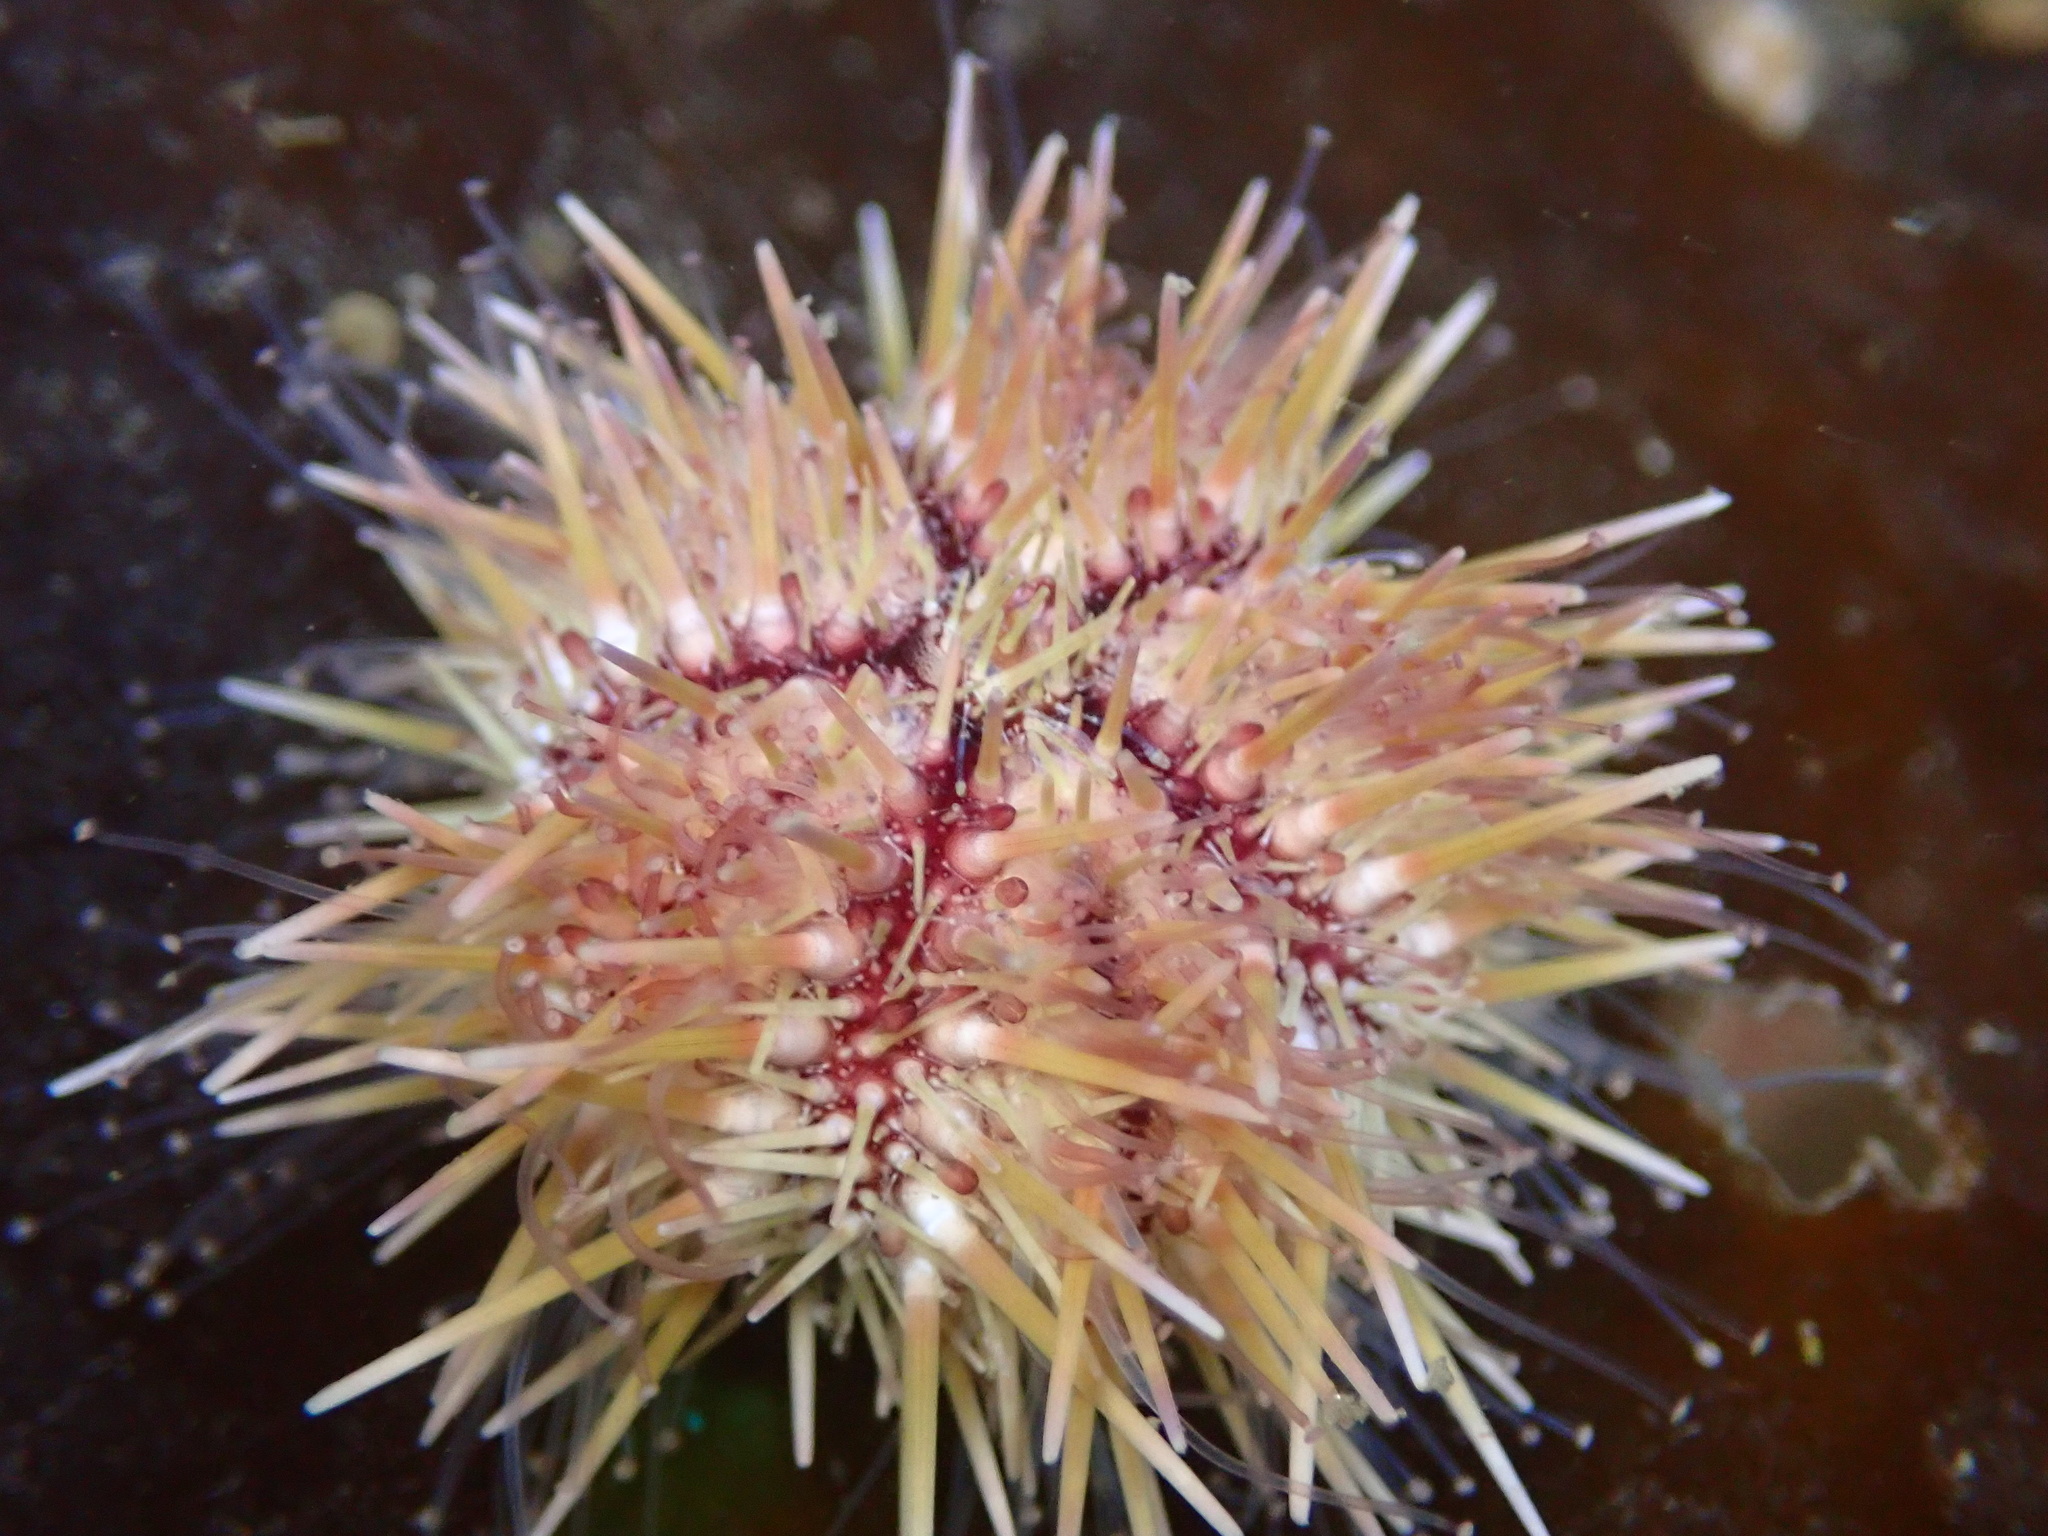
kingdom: Animalia
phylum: Echinodermata
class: Echinoidea
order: Camarodonta
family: Strongylocentrotidae
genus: Strongylocentrotus
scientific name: Strongylocentrotus droebachiensis
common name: Northern sea urchin
